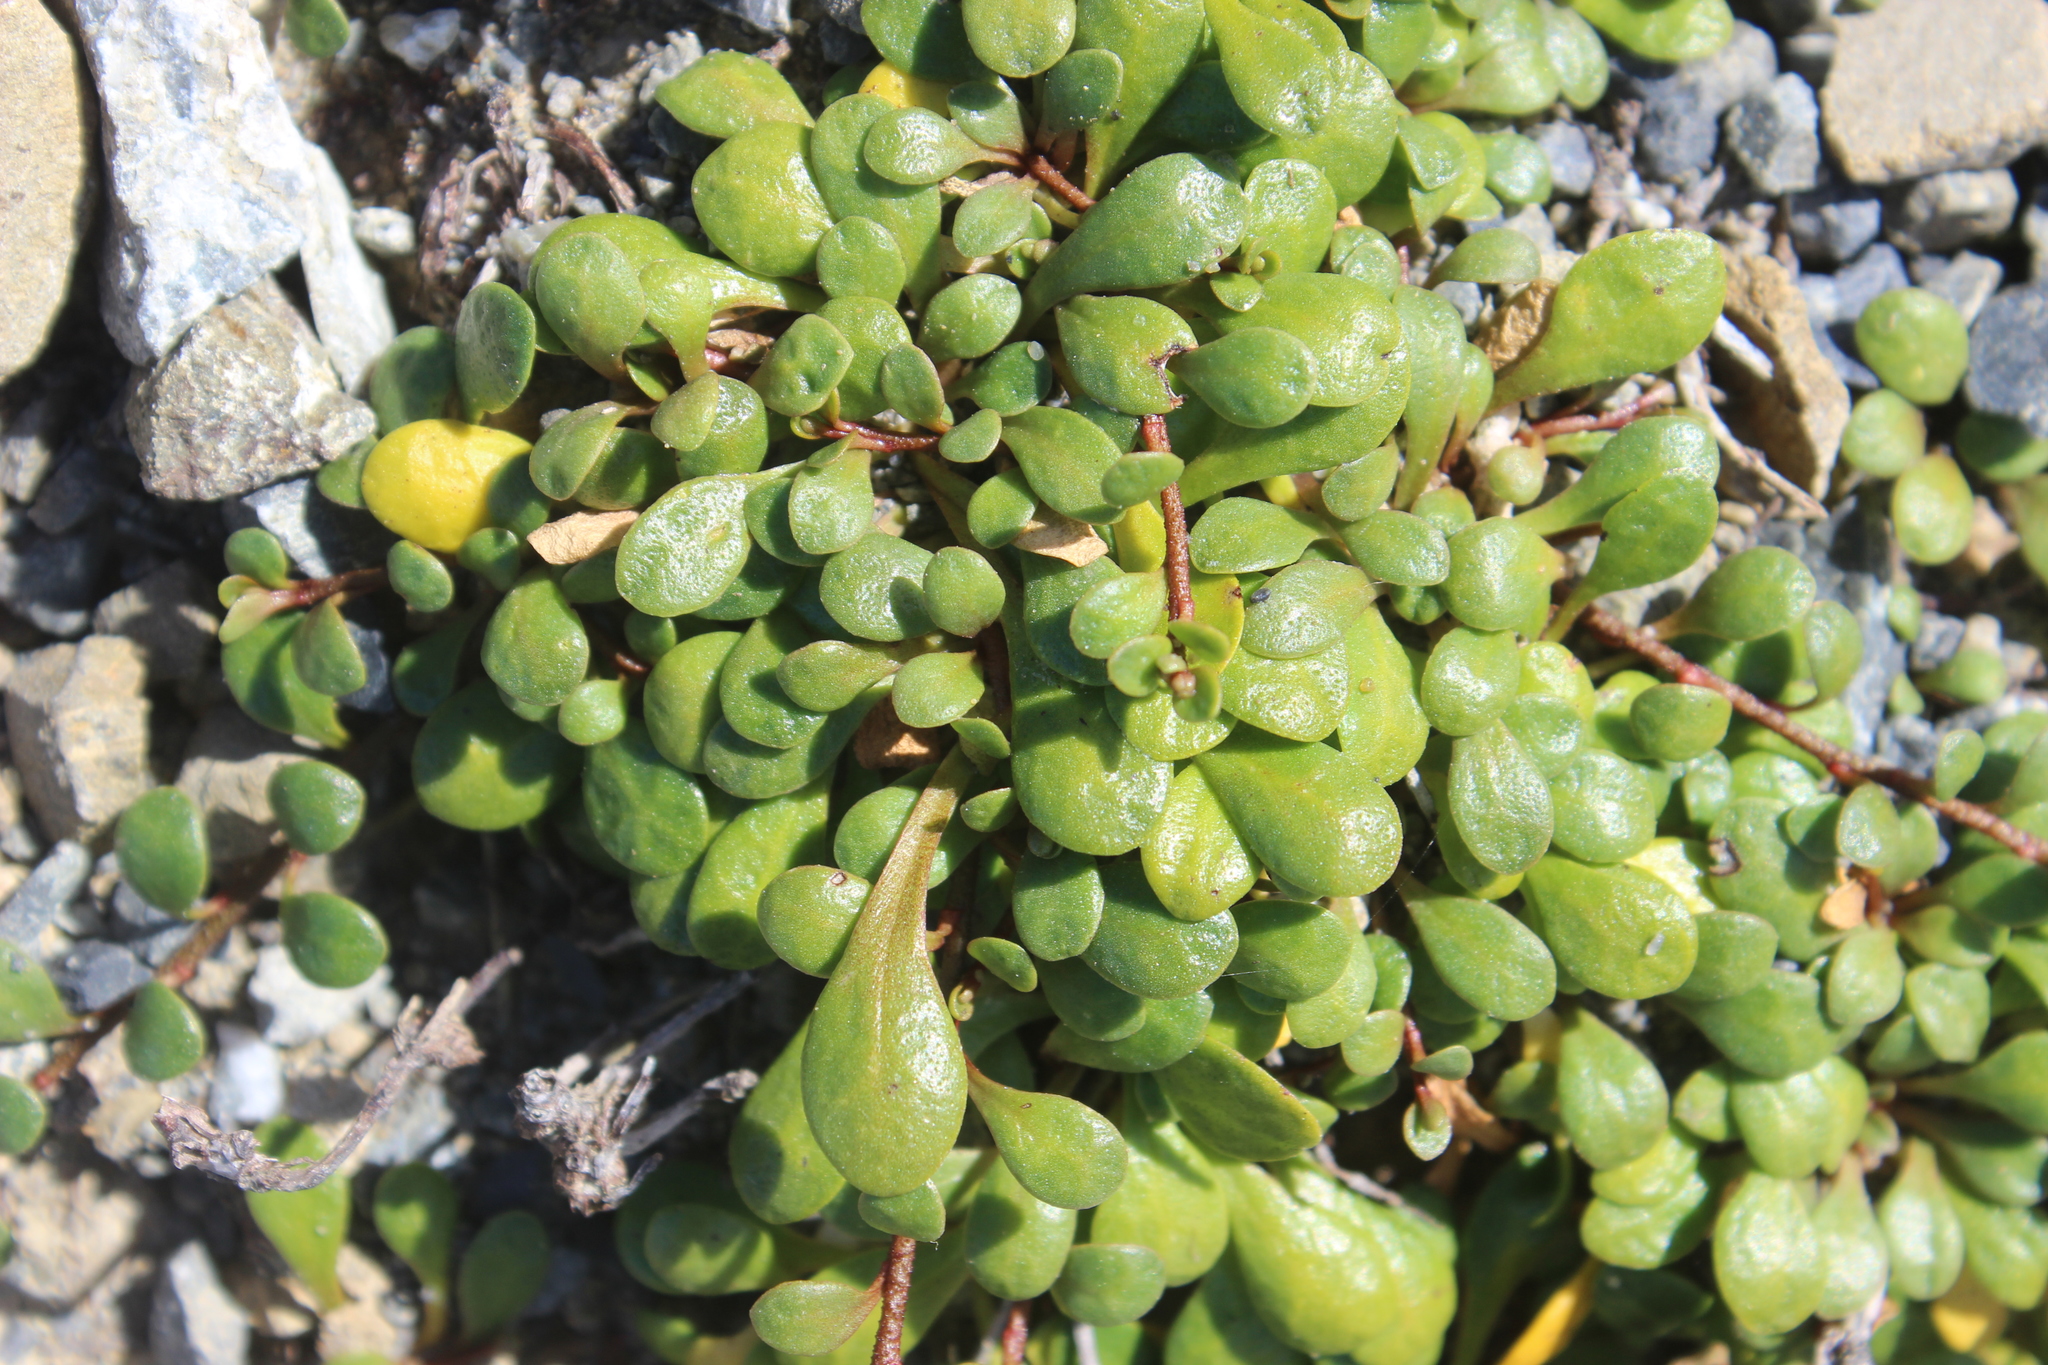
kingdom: Plantae
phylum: Tracheophyta
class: Magnoliopsida
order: Asterales
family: Goodeniaceae
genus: Goodenia
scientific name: Goodenia radicans
